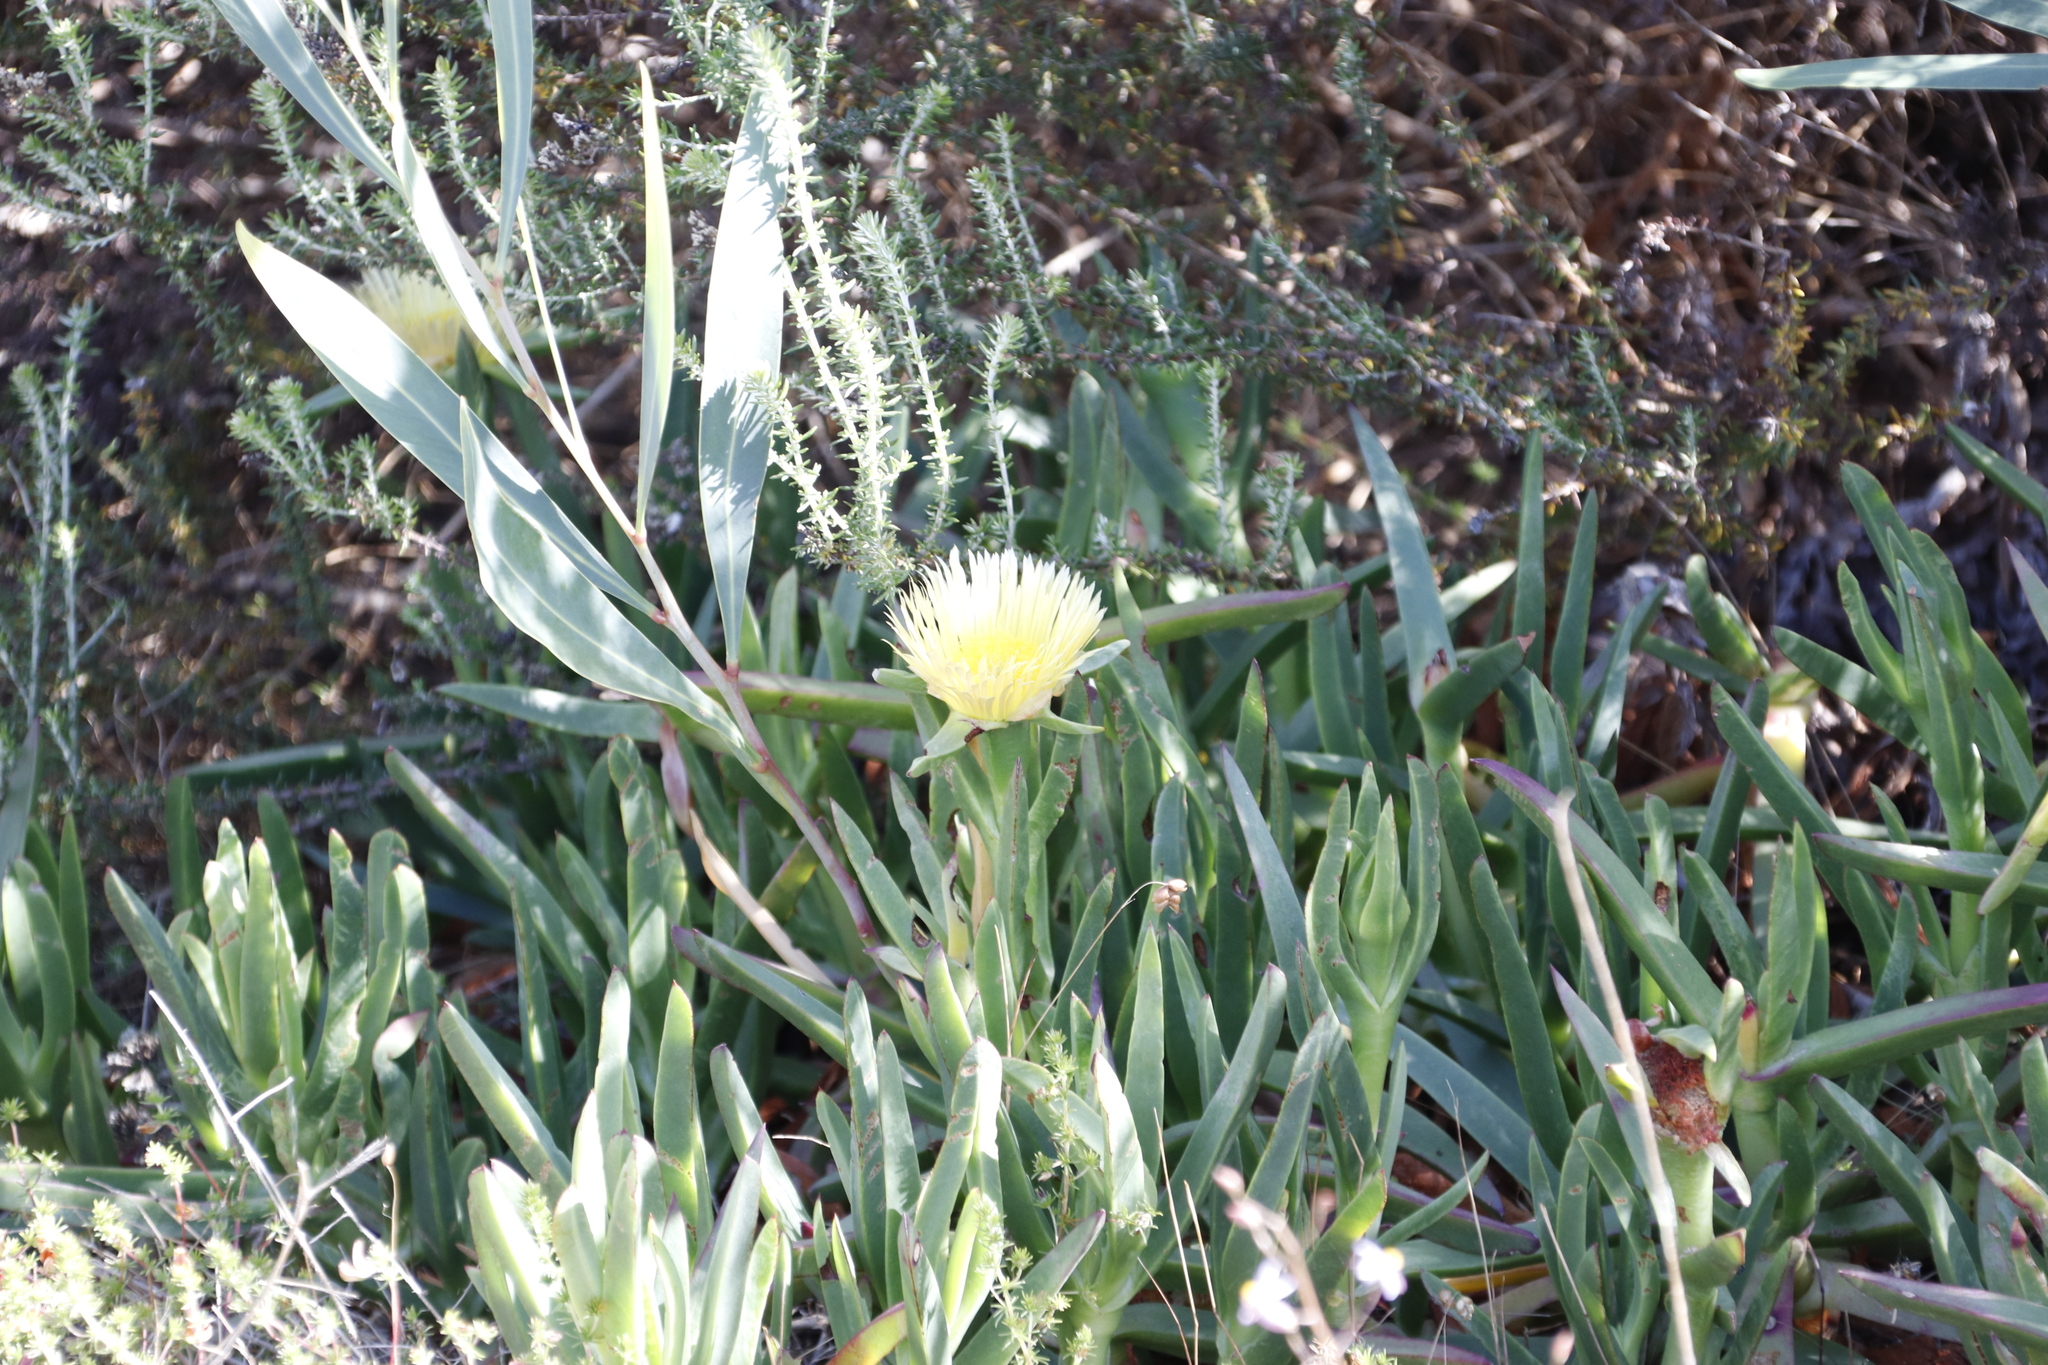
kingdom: Plantae
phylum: Tracheophyta
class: Magnoliopsida
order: Caryophyllales
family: Aizoaceae
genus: Carpobrotus
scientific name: Carpobrotus edulis
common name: Hottentot-fig
